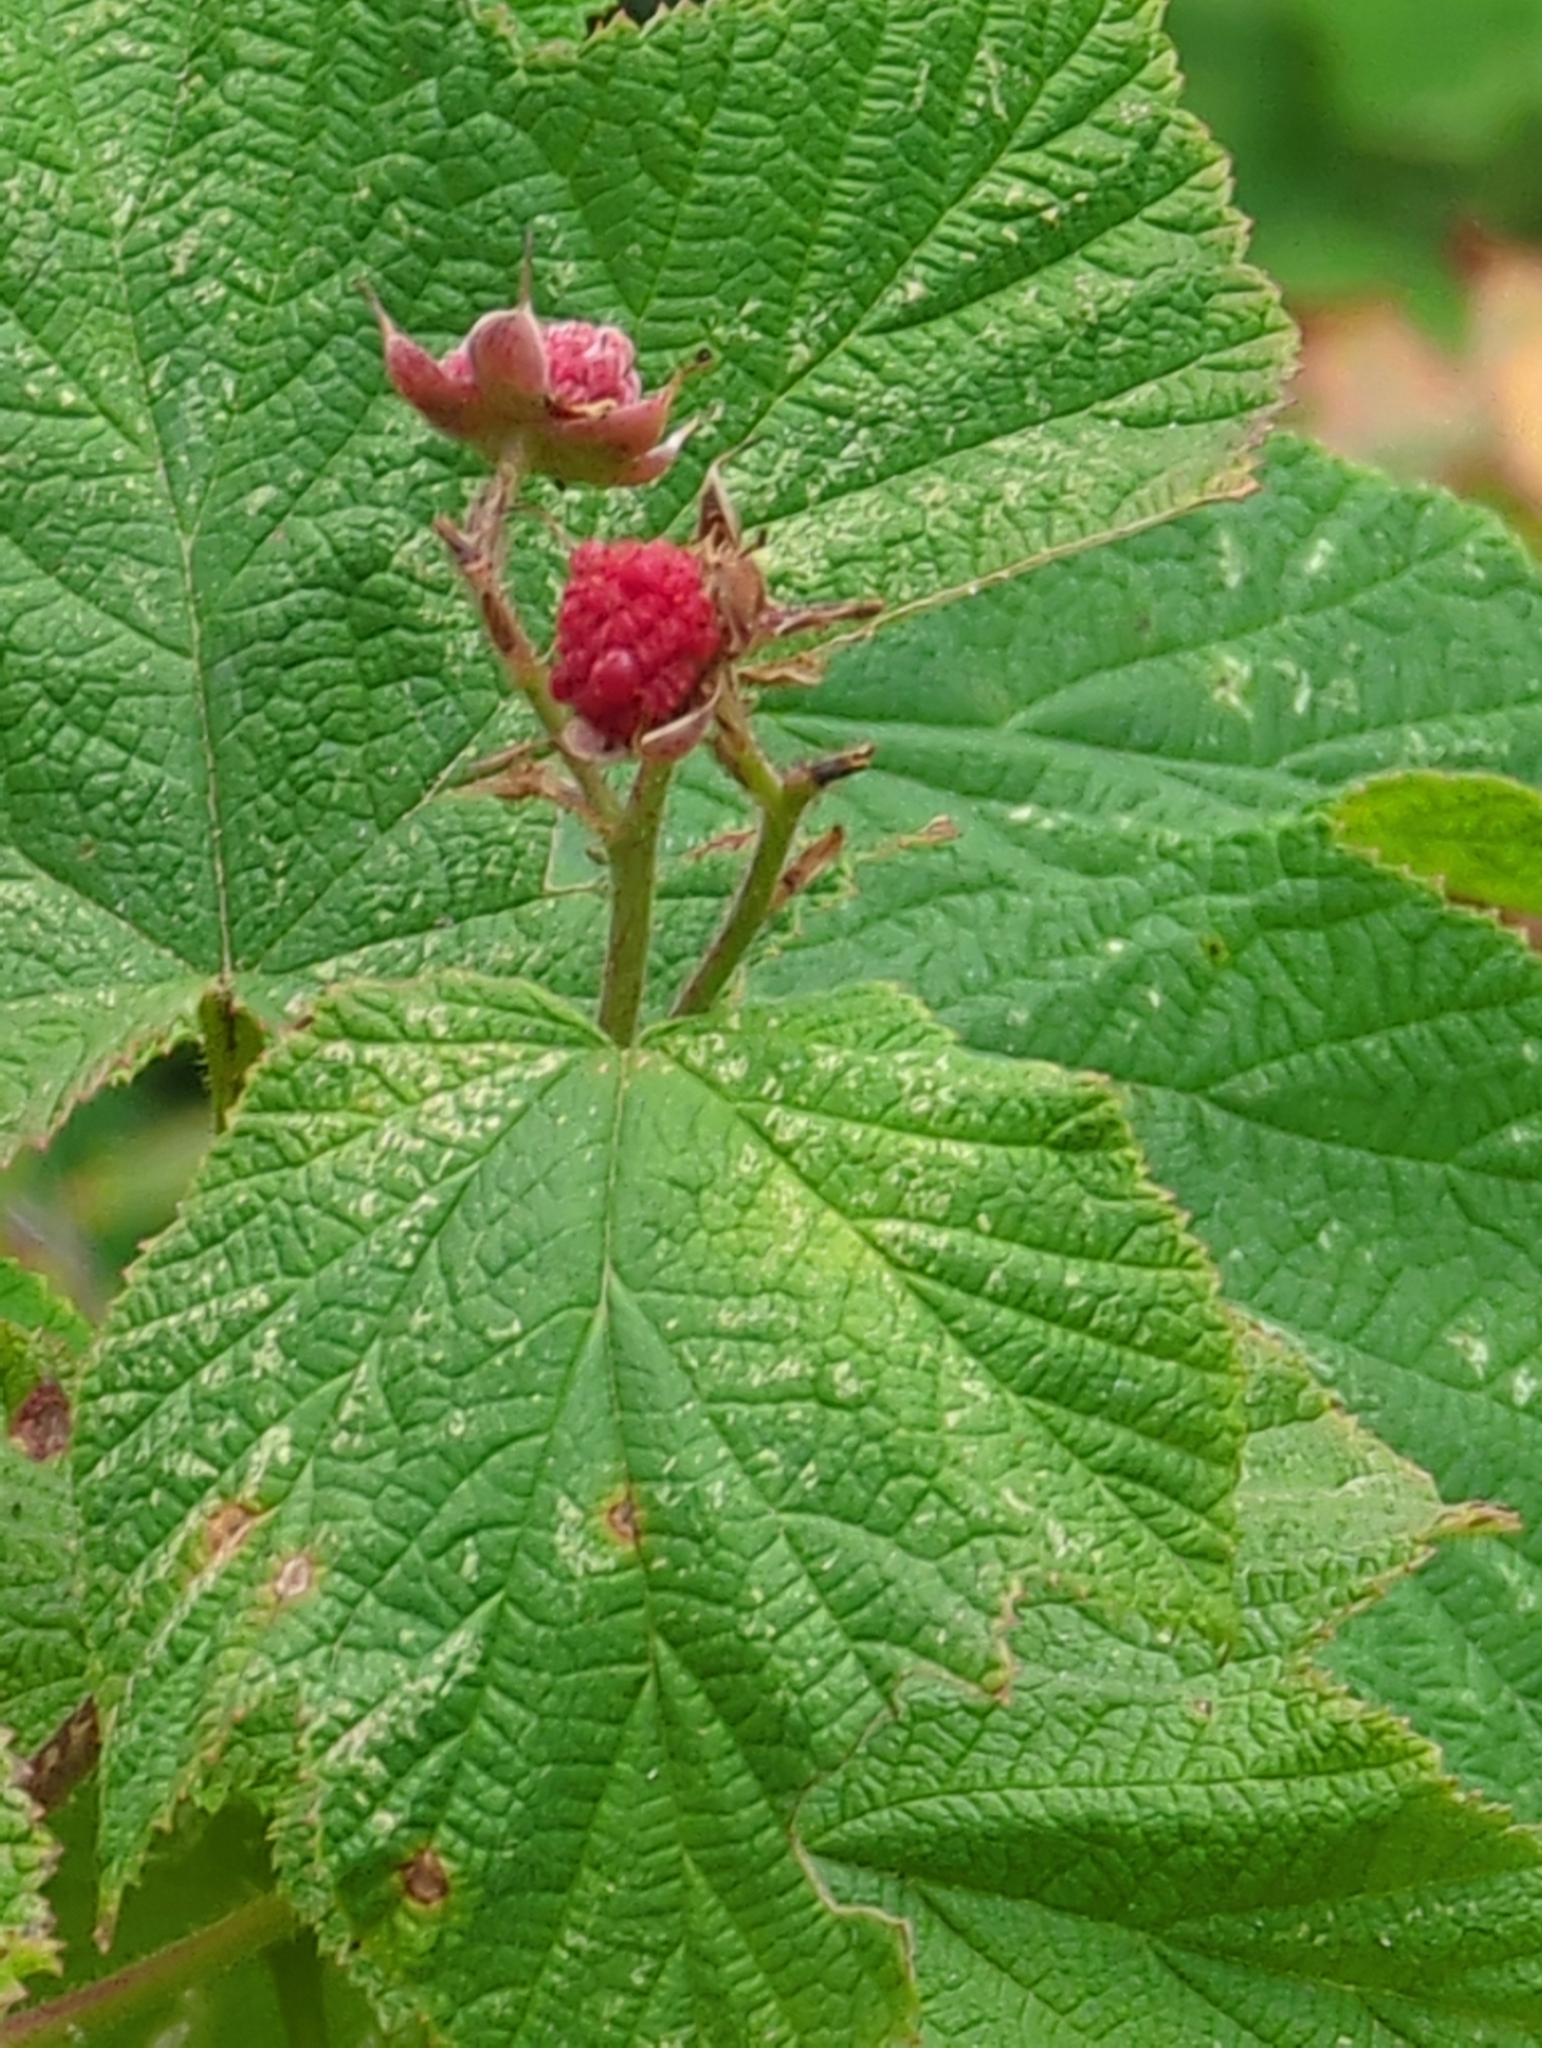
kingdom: Plantae
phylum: Tracheophyta
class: Magnoliopsida
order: Rosales
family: Rosaceae
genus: Rubus
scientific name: Rubus parviflorus
